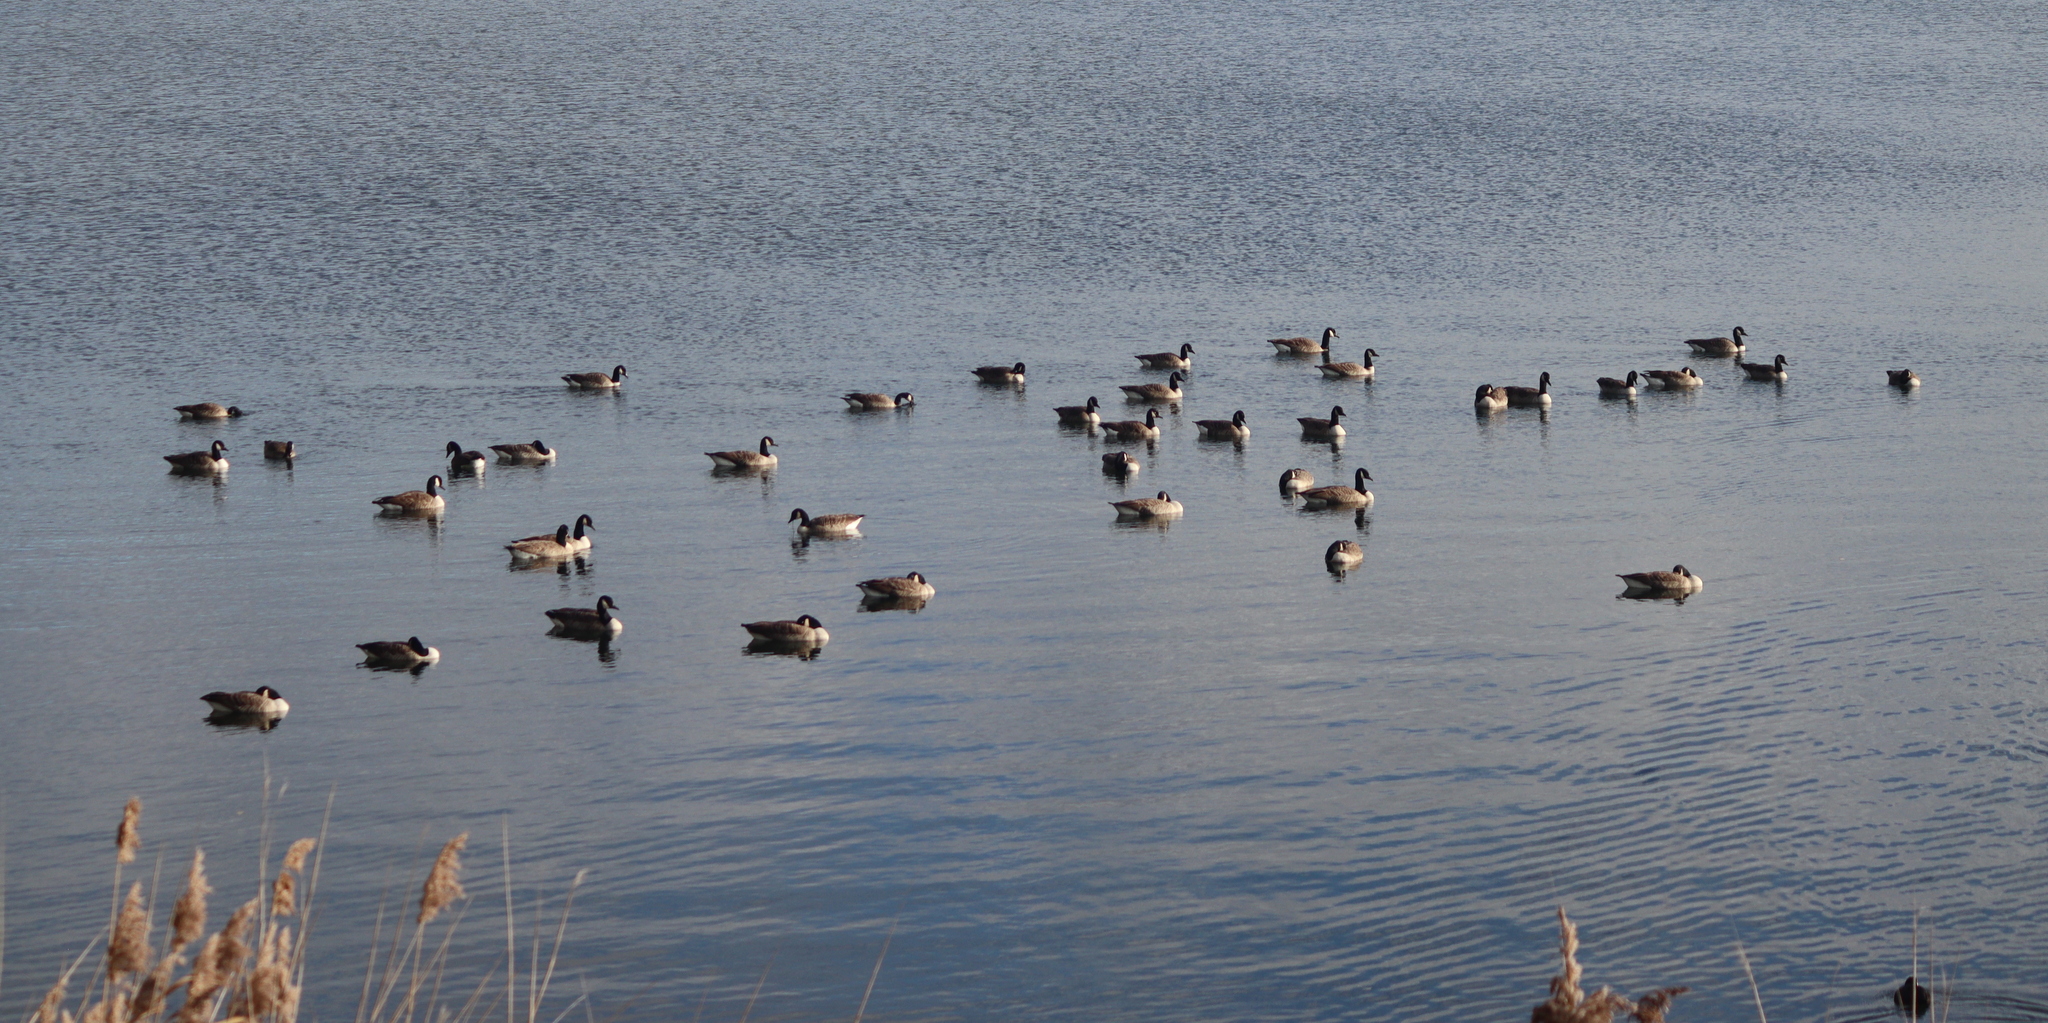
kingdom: Animalia
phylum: Chordata
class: Aves
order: Anseriformes
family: Anatidae
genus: Branta
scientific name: Branta canadensis
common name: Canada goose
